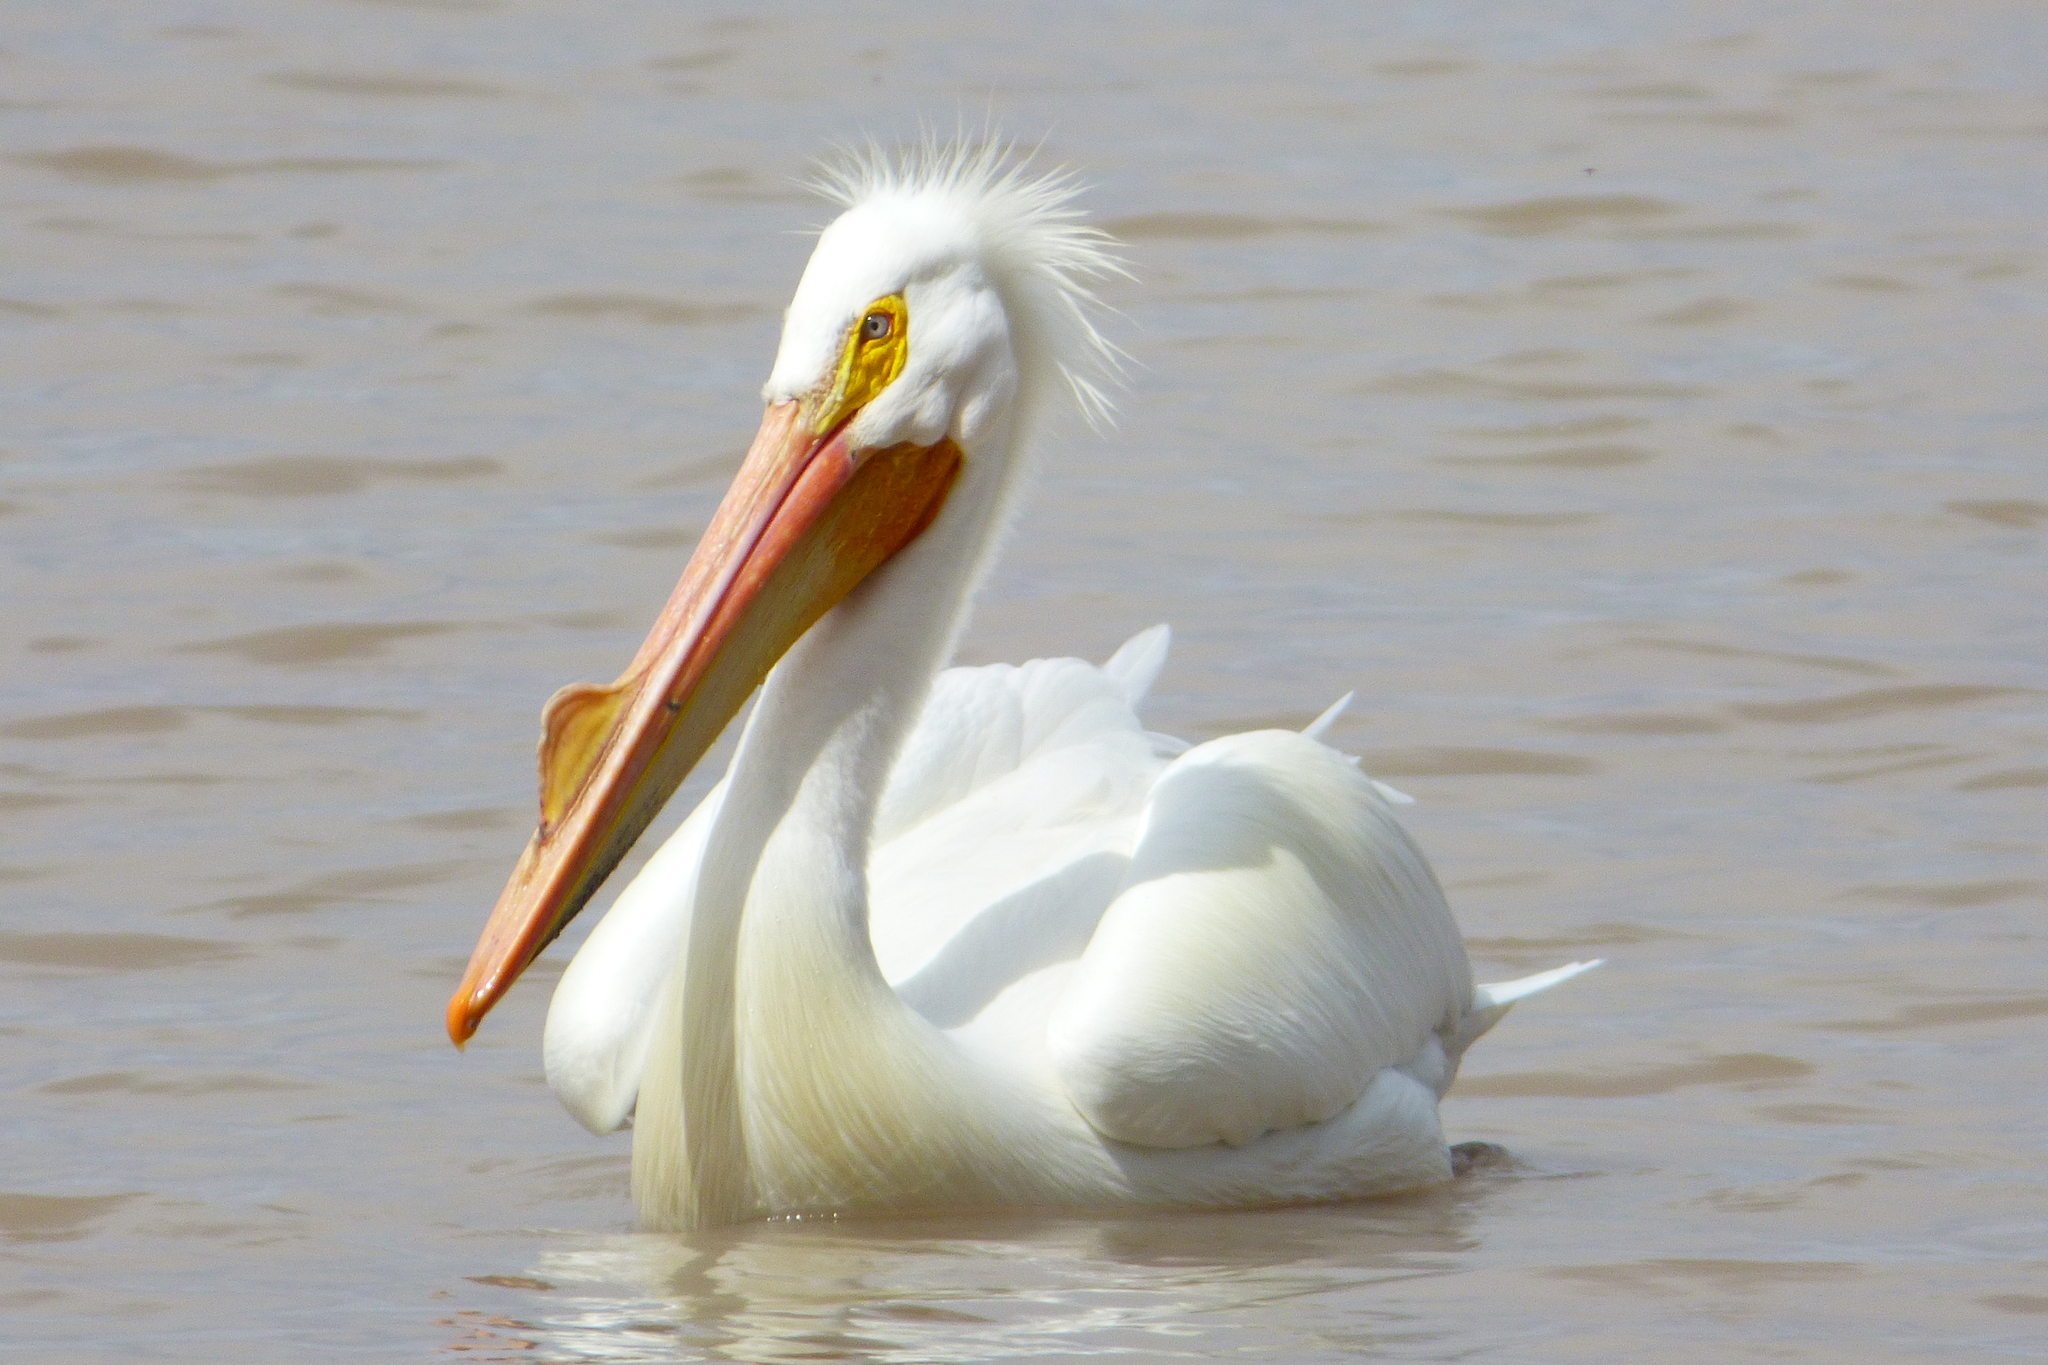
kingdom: Animalia
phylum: Chordata
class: Aves
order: Pelecaniformes
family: Pelecanidae
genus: Pelecanus
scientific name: Pelecanus erythrorhynchos
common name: American white pelican
